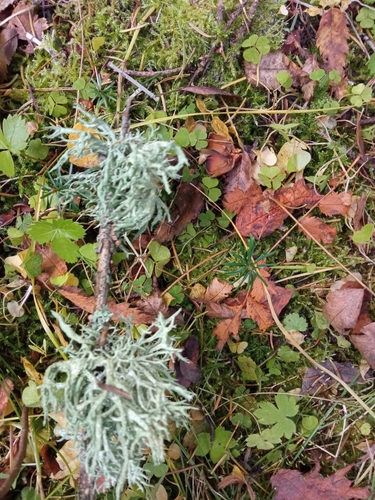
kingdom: Fungi
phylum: Ascomycota
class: Lecanoromycetes
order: Lecanorales
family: Parmeliaceae
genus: Evernia
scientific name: Evernia mesomorpha
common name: Boreal oak moss lichen
